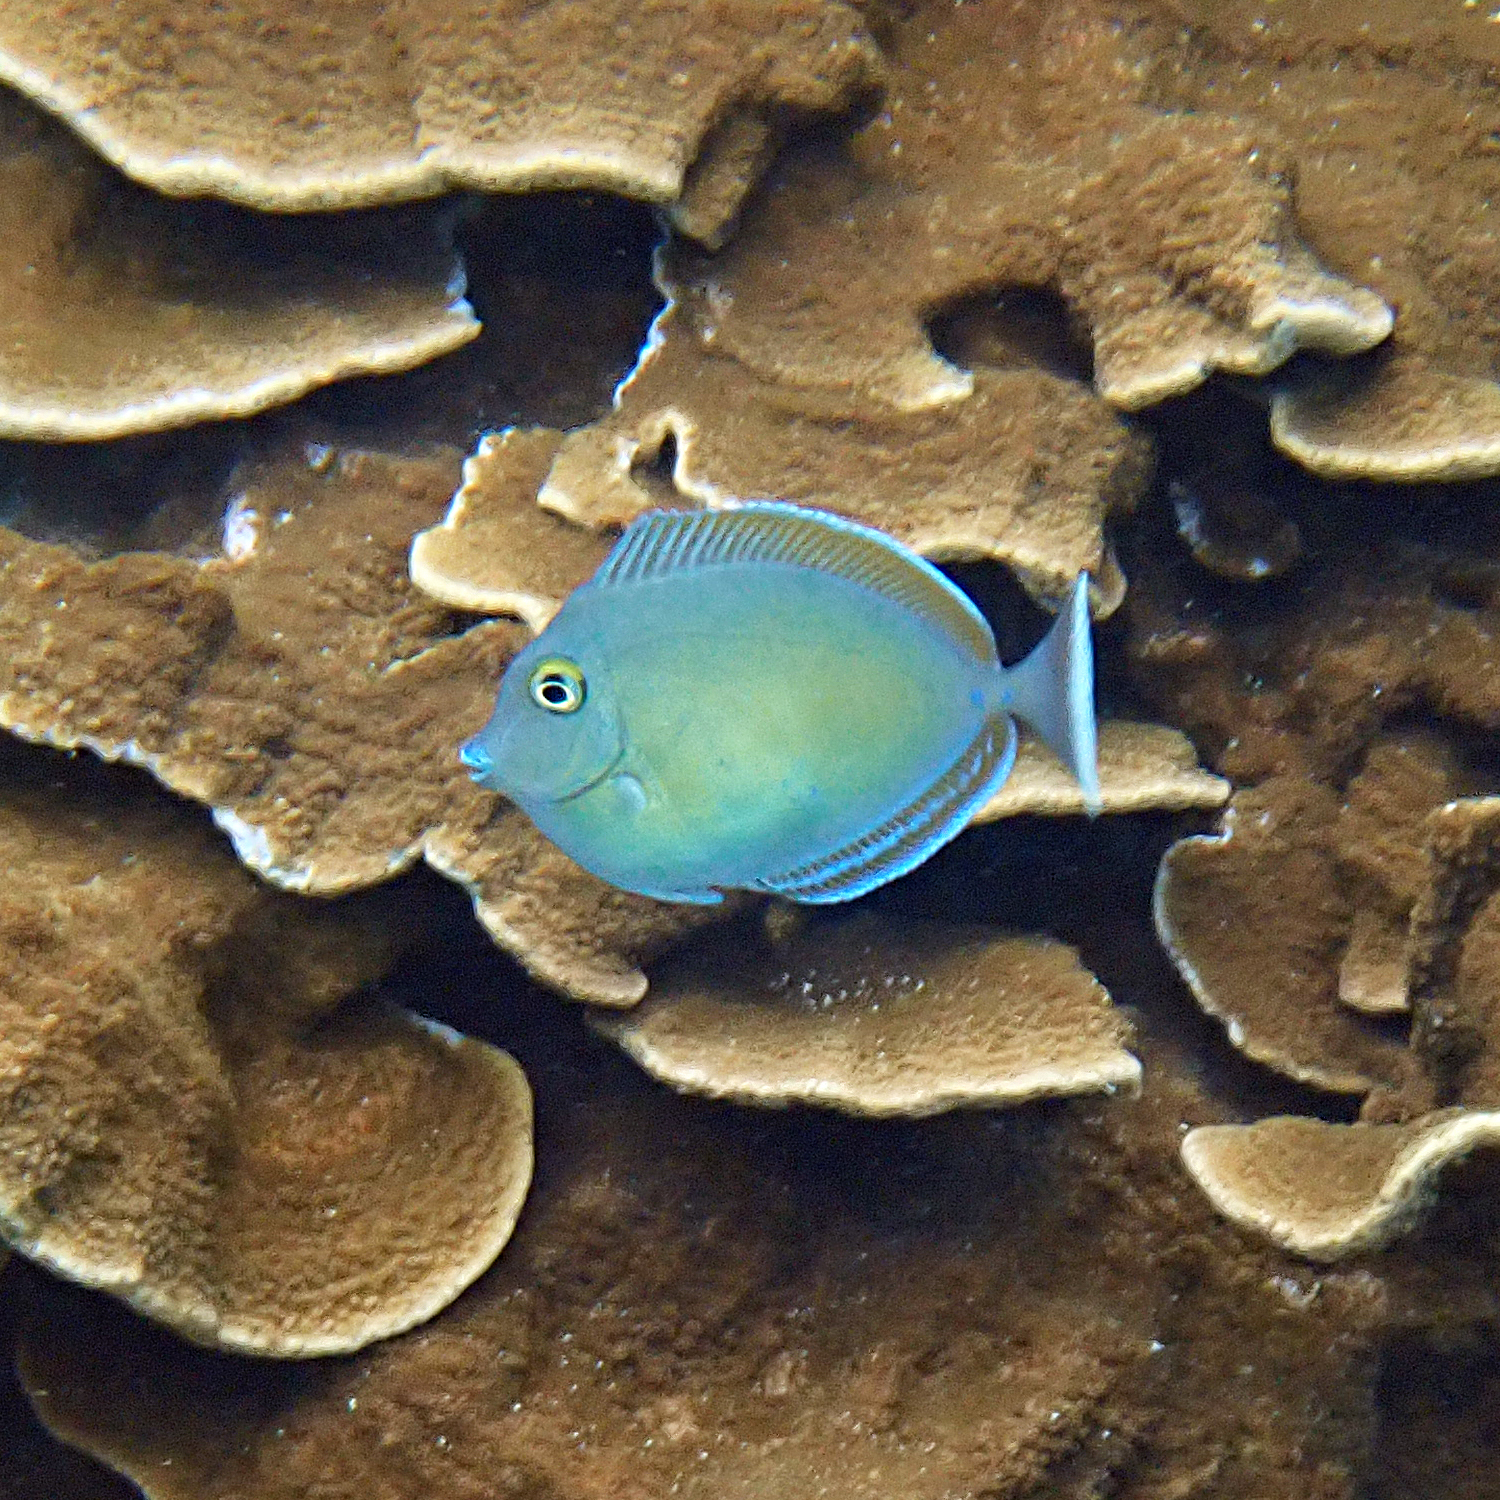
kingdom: Animalia
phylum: Chordata
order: Perciformes
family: Acanthuridae
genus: Naso
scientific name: Naso unicornis
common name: Bluespine unicornfish
